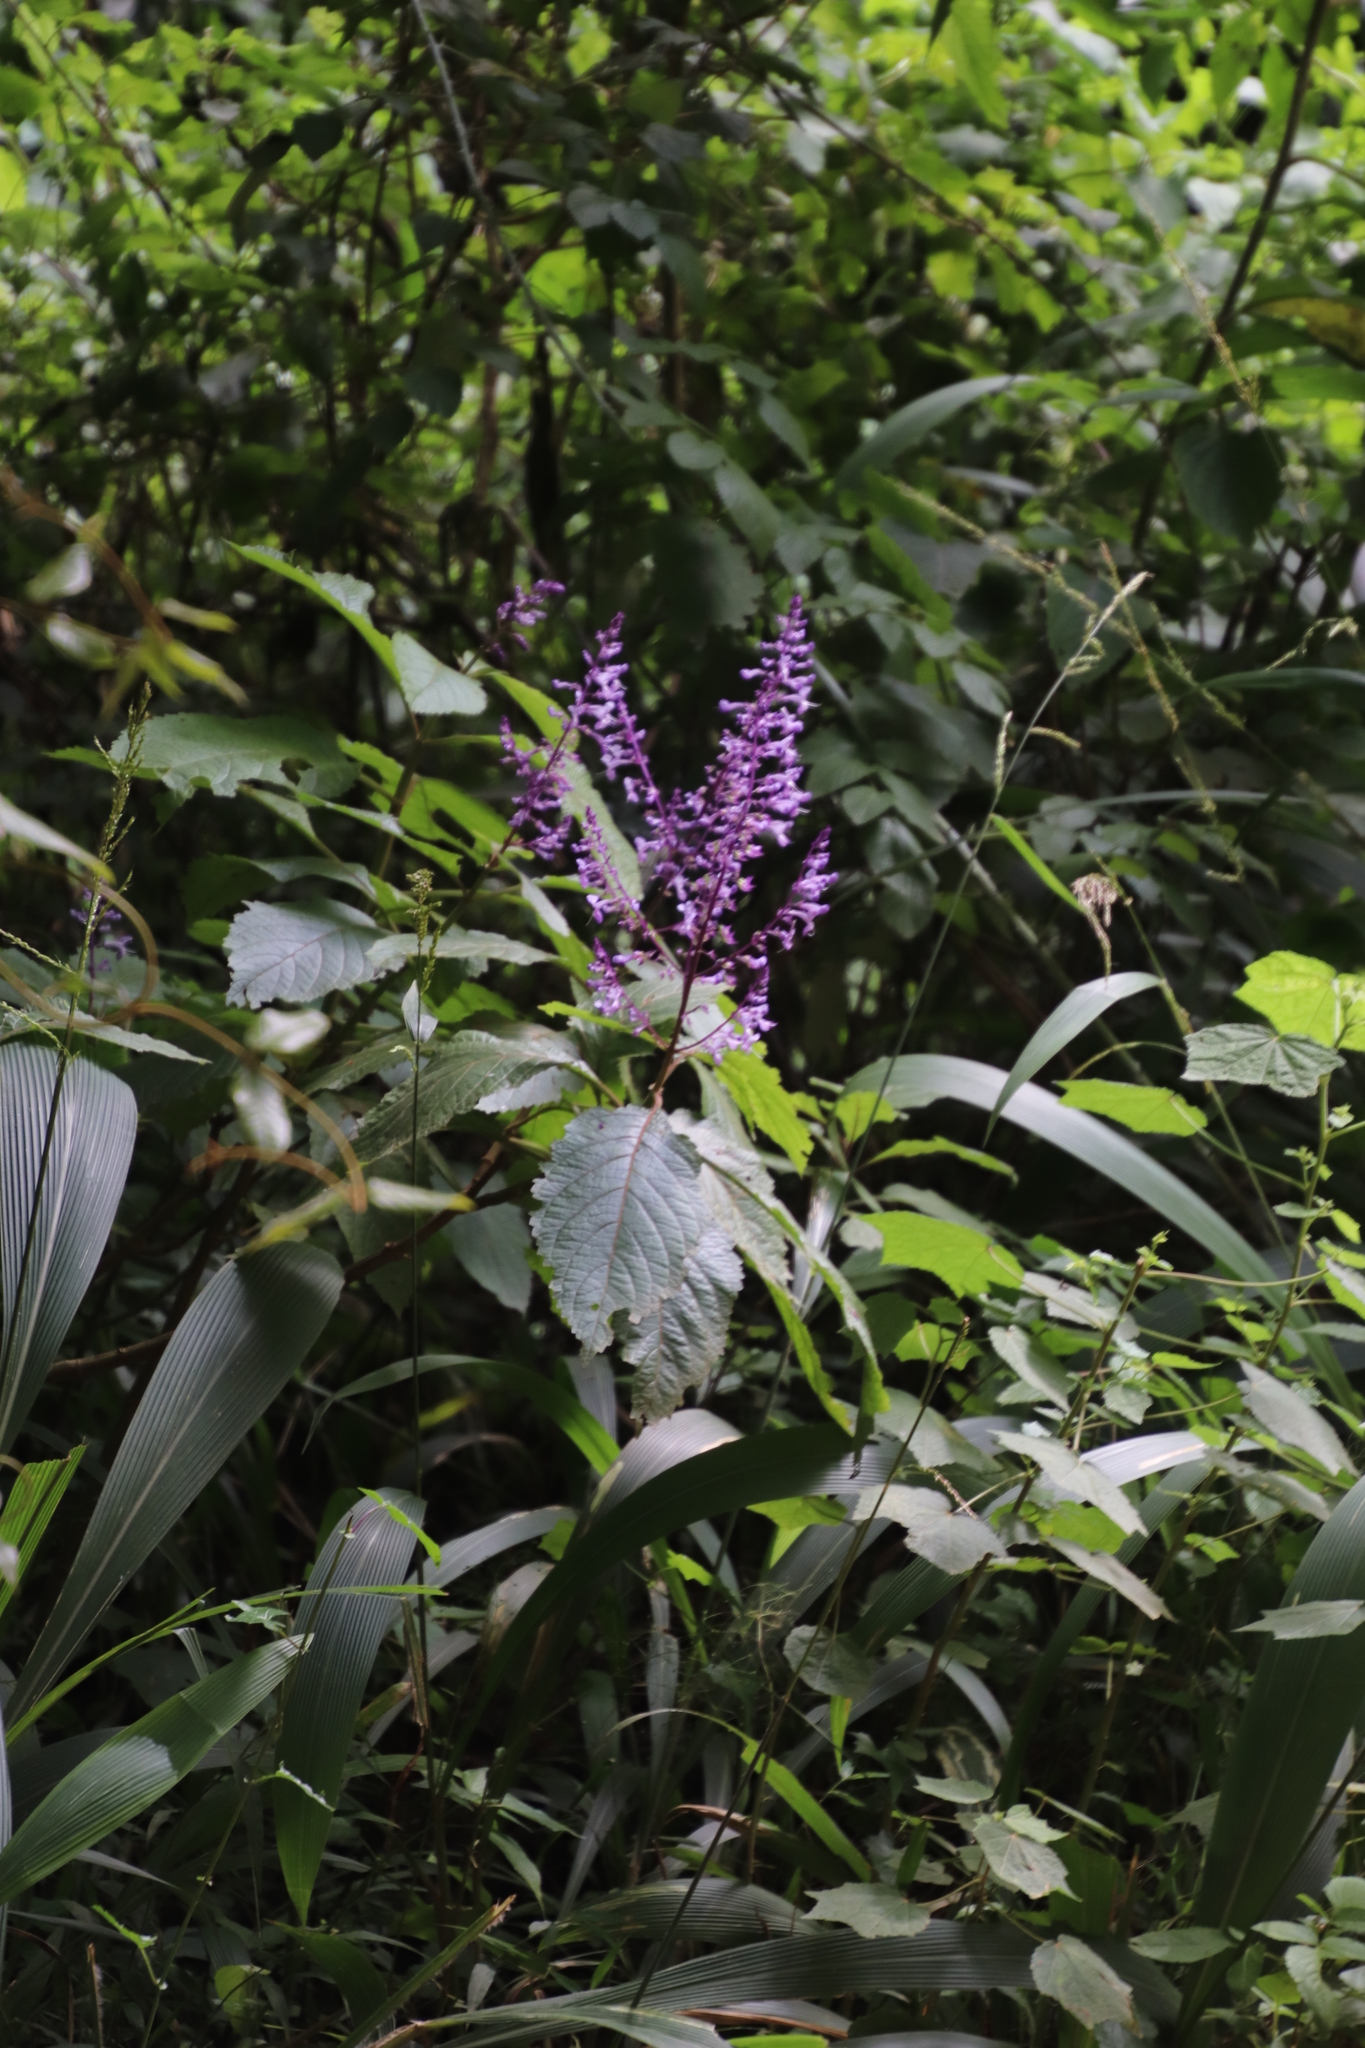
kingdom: Plantae
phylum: Tracheophyta
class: Magnoliopsida
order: Lamiales
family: Lamiaceae
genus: Plectranthus
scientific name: Plectranthus fruticosus
